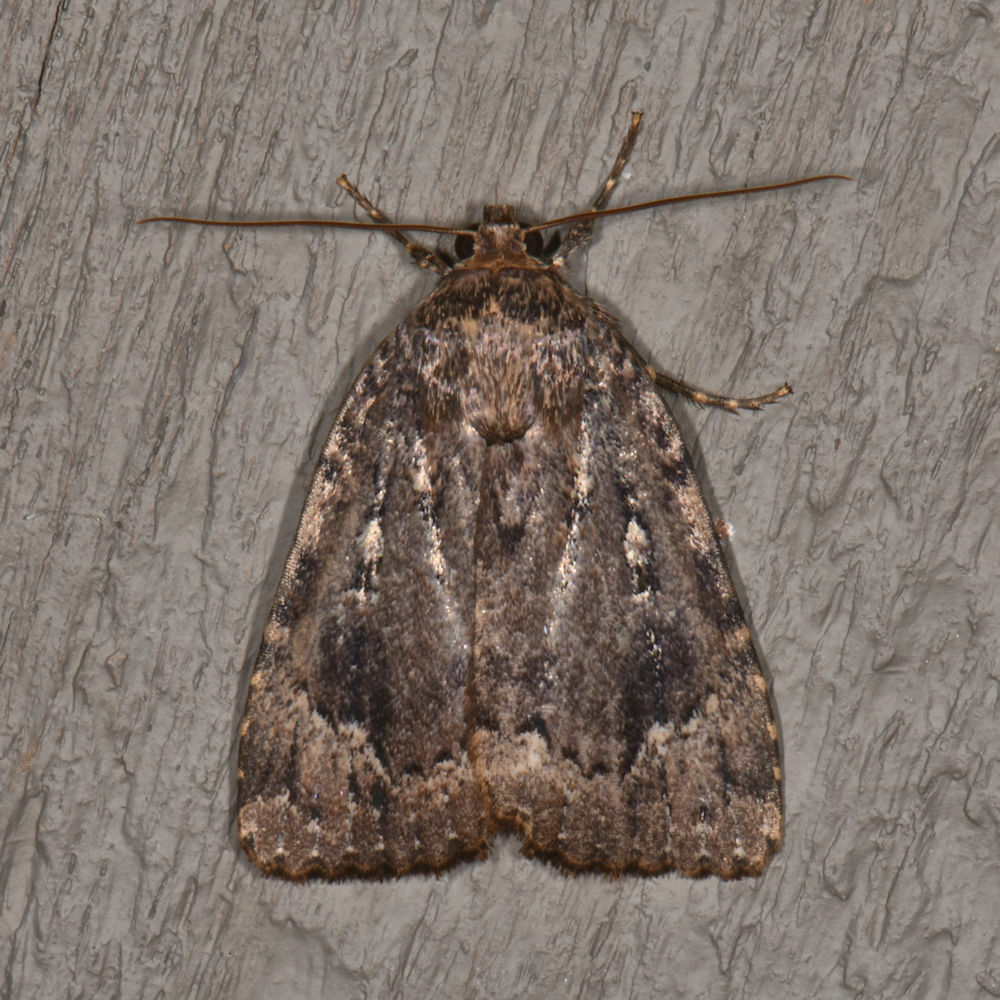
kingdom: Animalia
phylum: Arthropoda
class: Insecta
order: Lepidoptera
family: Noctuidae
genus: Amphipyra
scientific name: Amphipyra pyramidoides
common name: American copper underwing
